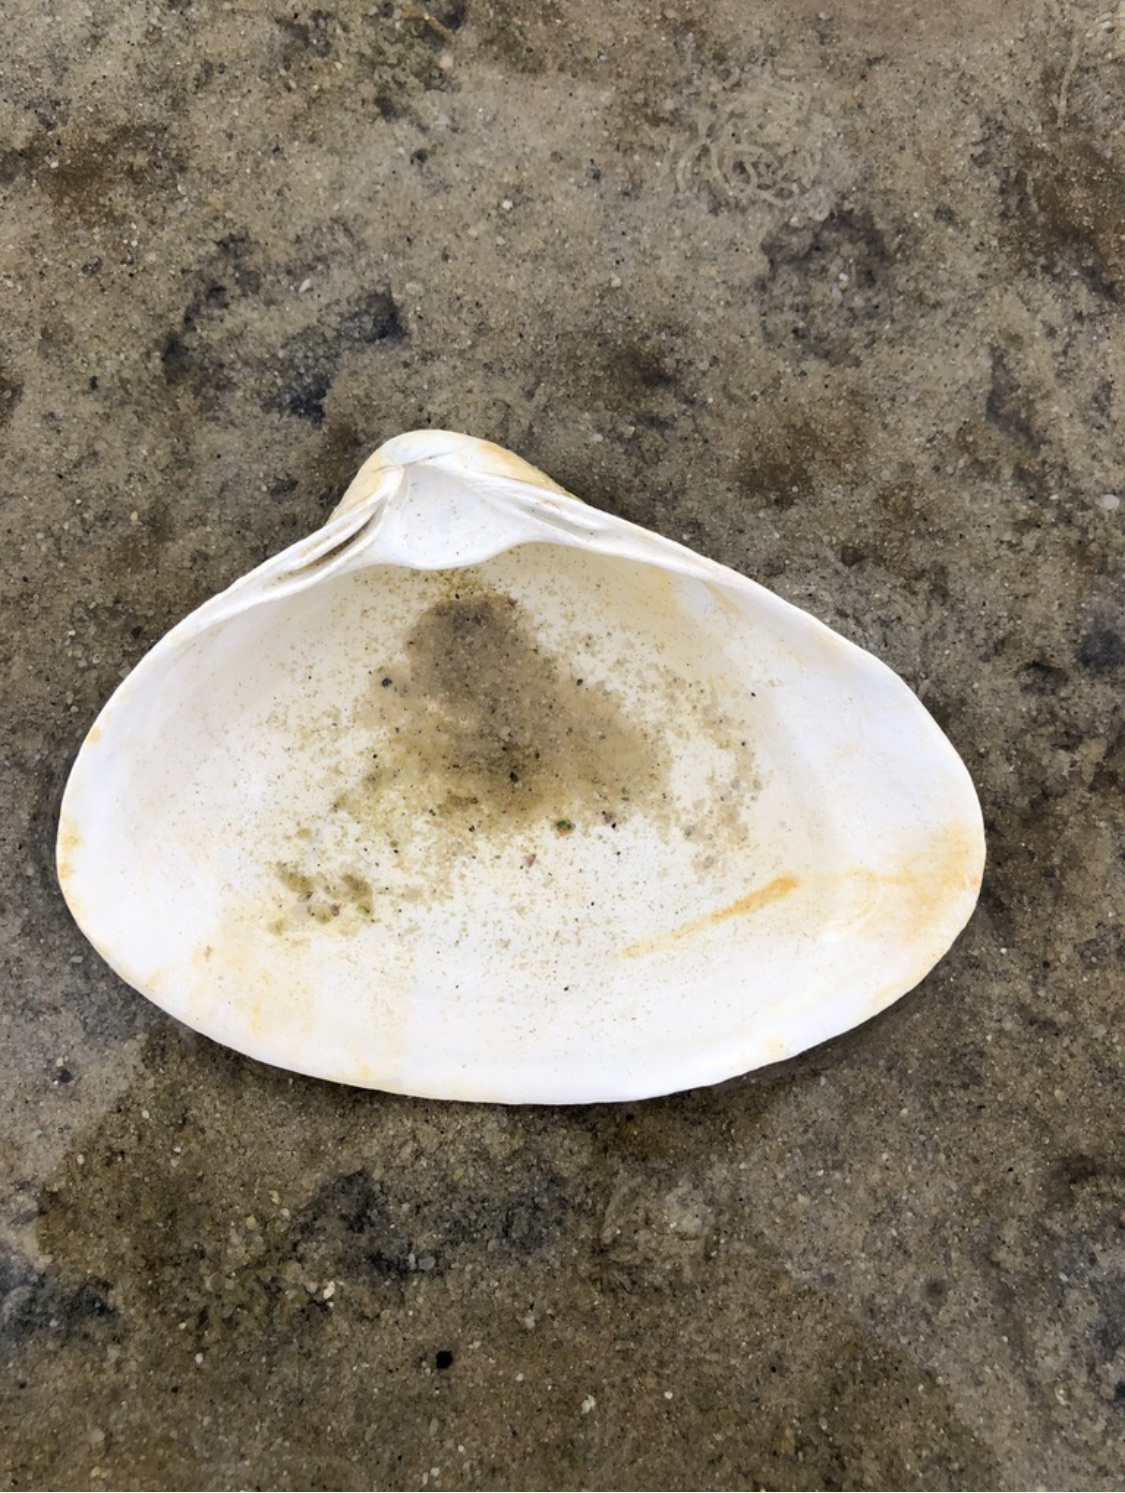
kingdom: Animalia
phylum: Mollusca
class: Bivalvia
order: Venerida
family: Mactridae
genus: Spisula
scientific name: Spisula solidissima
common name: Atlantic surf clam
